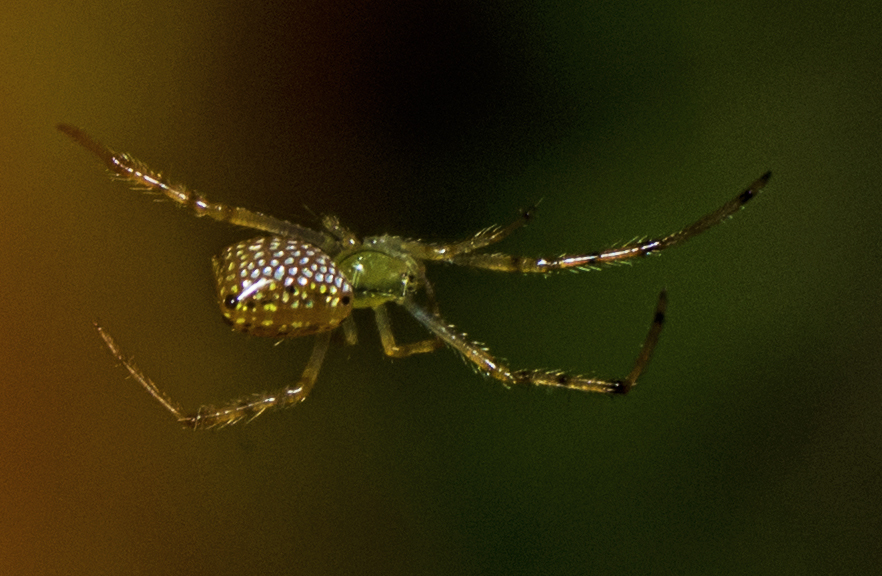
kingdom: Animalia
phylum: Arthropoda
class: Arachnida
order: Araneae
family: Theridiidae
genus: Thwaitesia
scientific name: Thwaitesia nigronodosa
